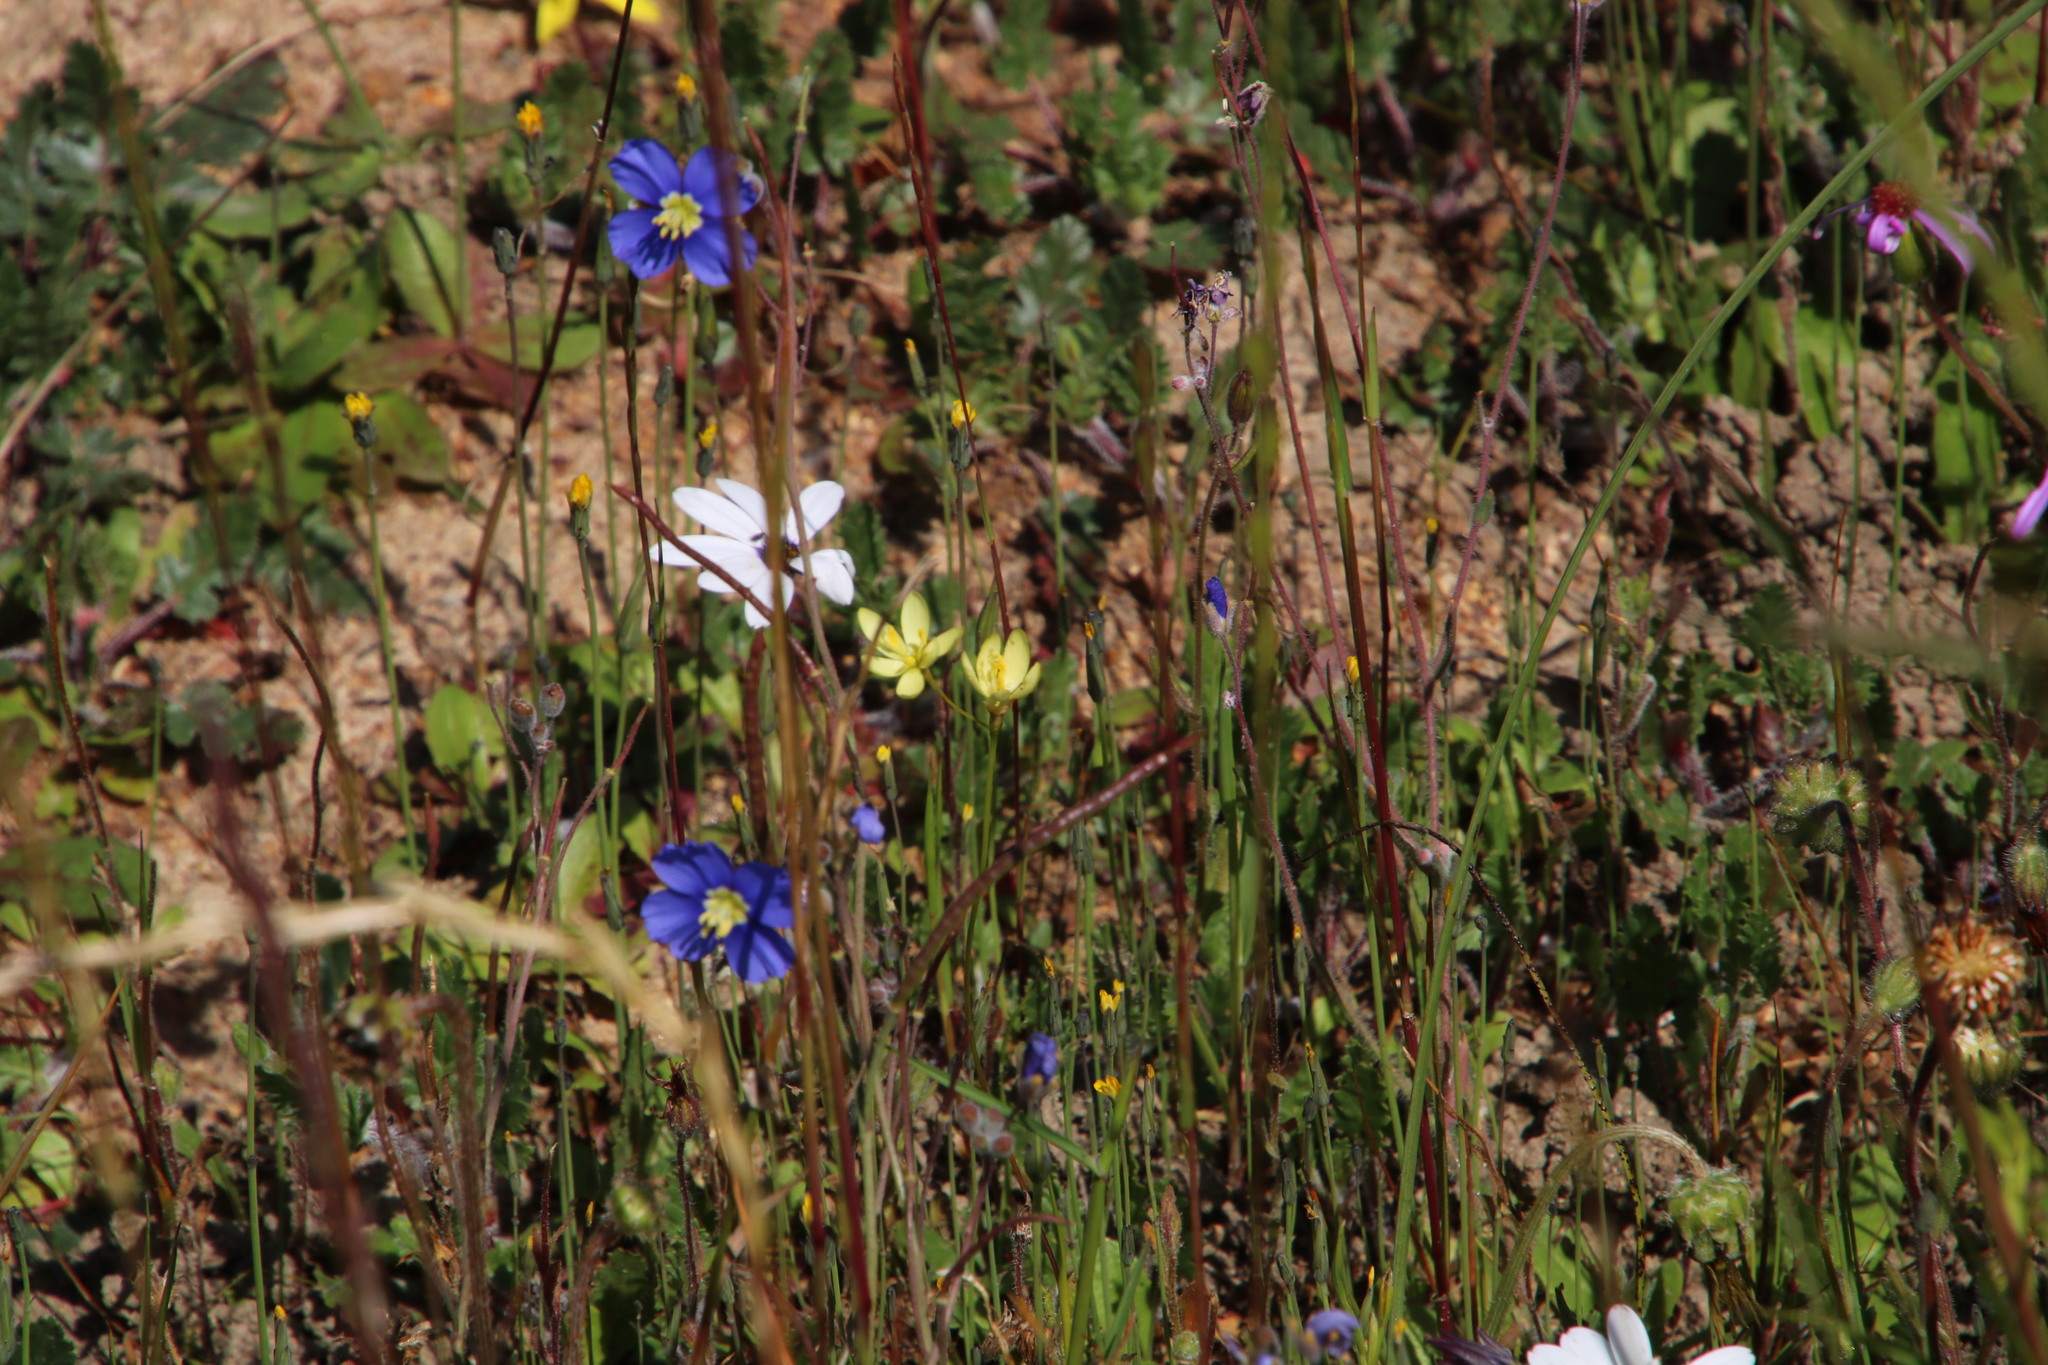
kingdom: Plantae
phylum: Tracheophyta
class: Magnoliopsida
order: Brassicales
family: Brassicaceae
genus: Heliophila
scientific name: Heliophila coronopifolia
